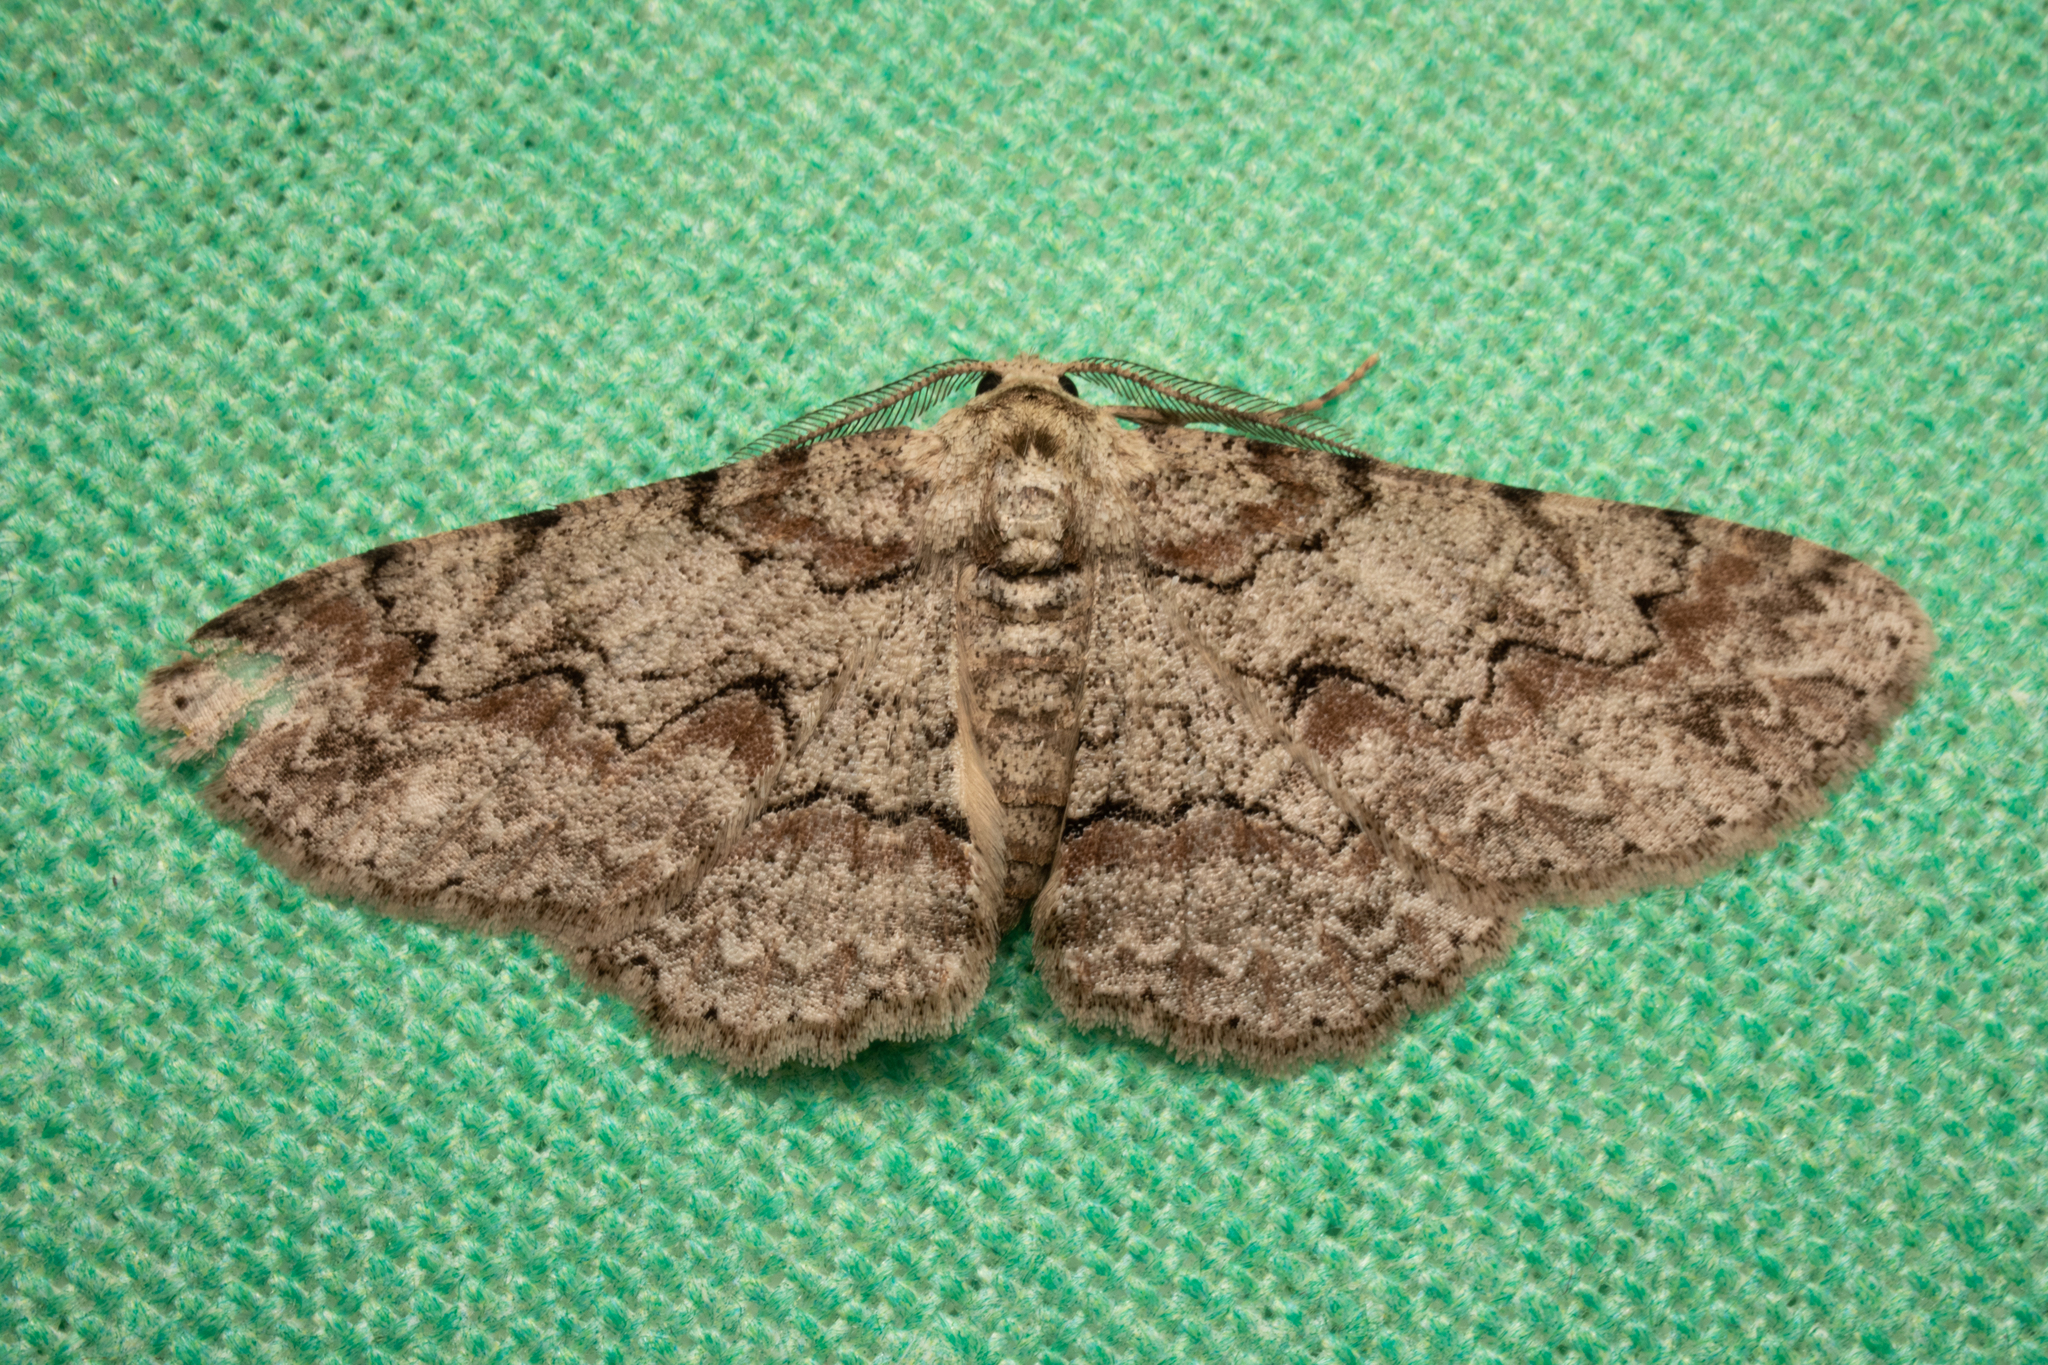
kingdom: Animalia
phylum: Arthropoda
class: Insecta
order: Lepidoptera
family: Geometridae
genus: Iridopsis
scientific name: Iridopsis defectaria
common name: Brown-shaded gray
